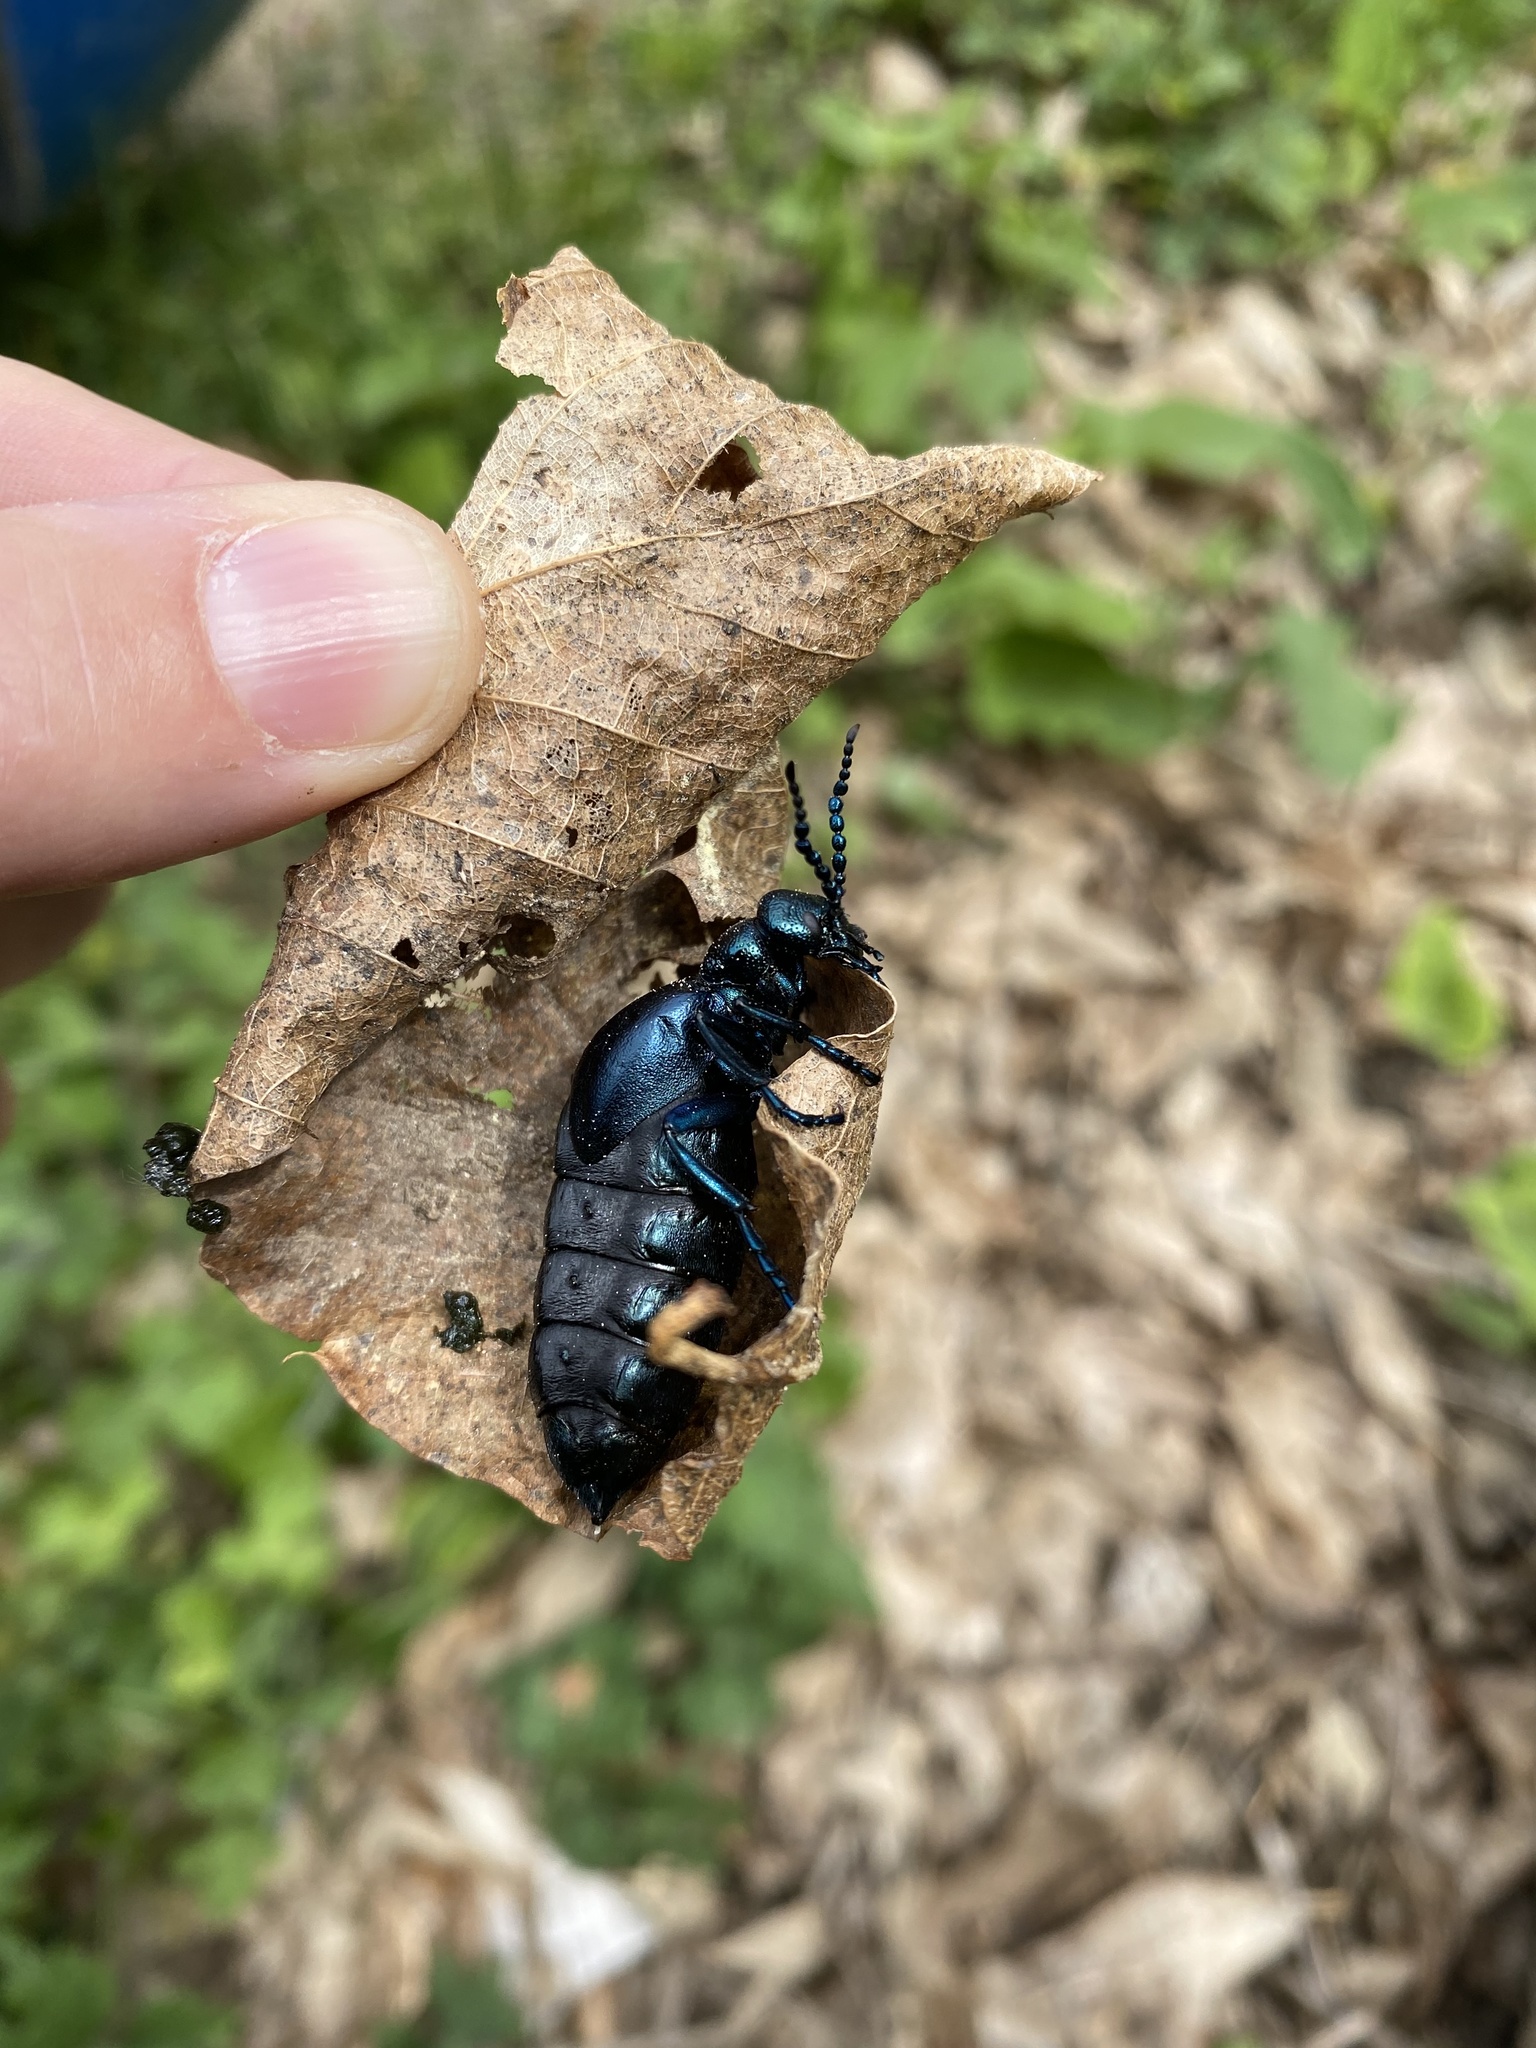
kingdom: Animalia
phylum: Arthropoda
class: Insecta
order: Coleoptera
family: Meloidae
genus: Meloe
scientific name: Meloe violaceus
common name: Violet oil-beetle
